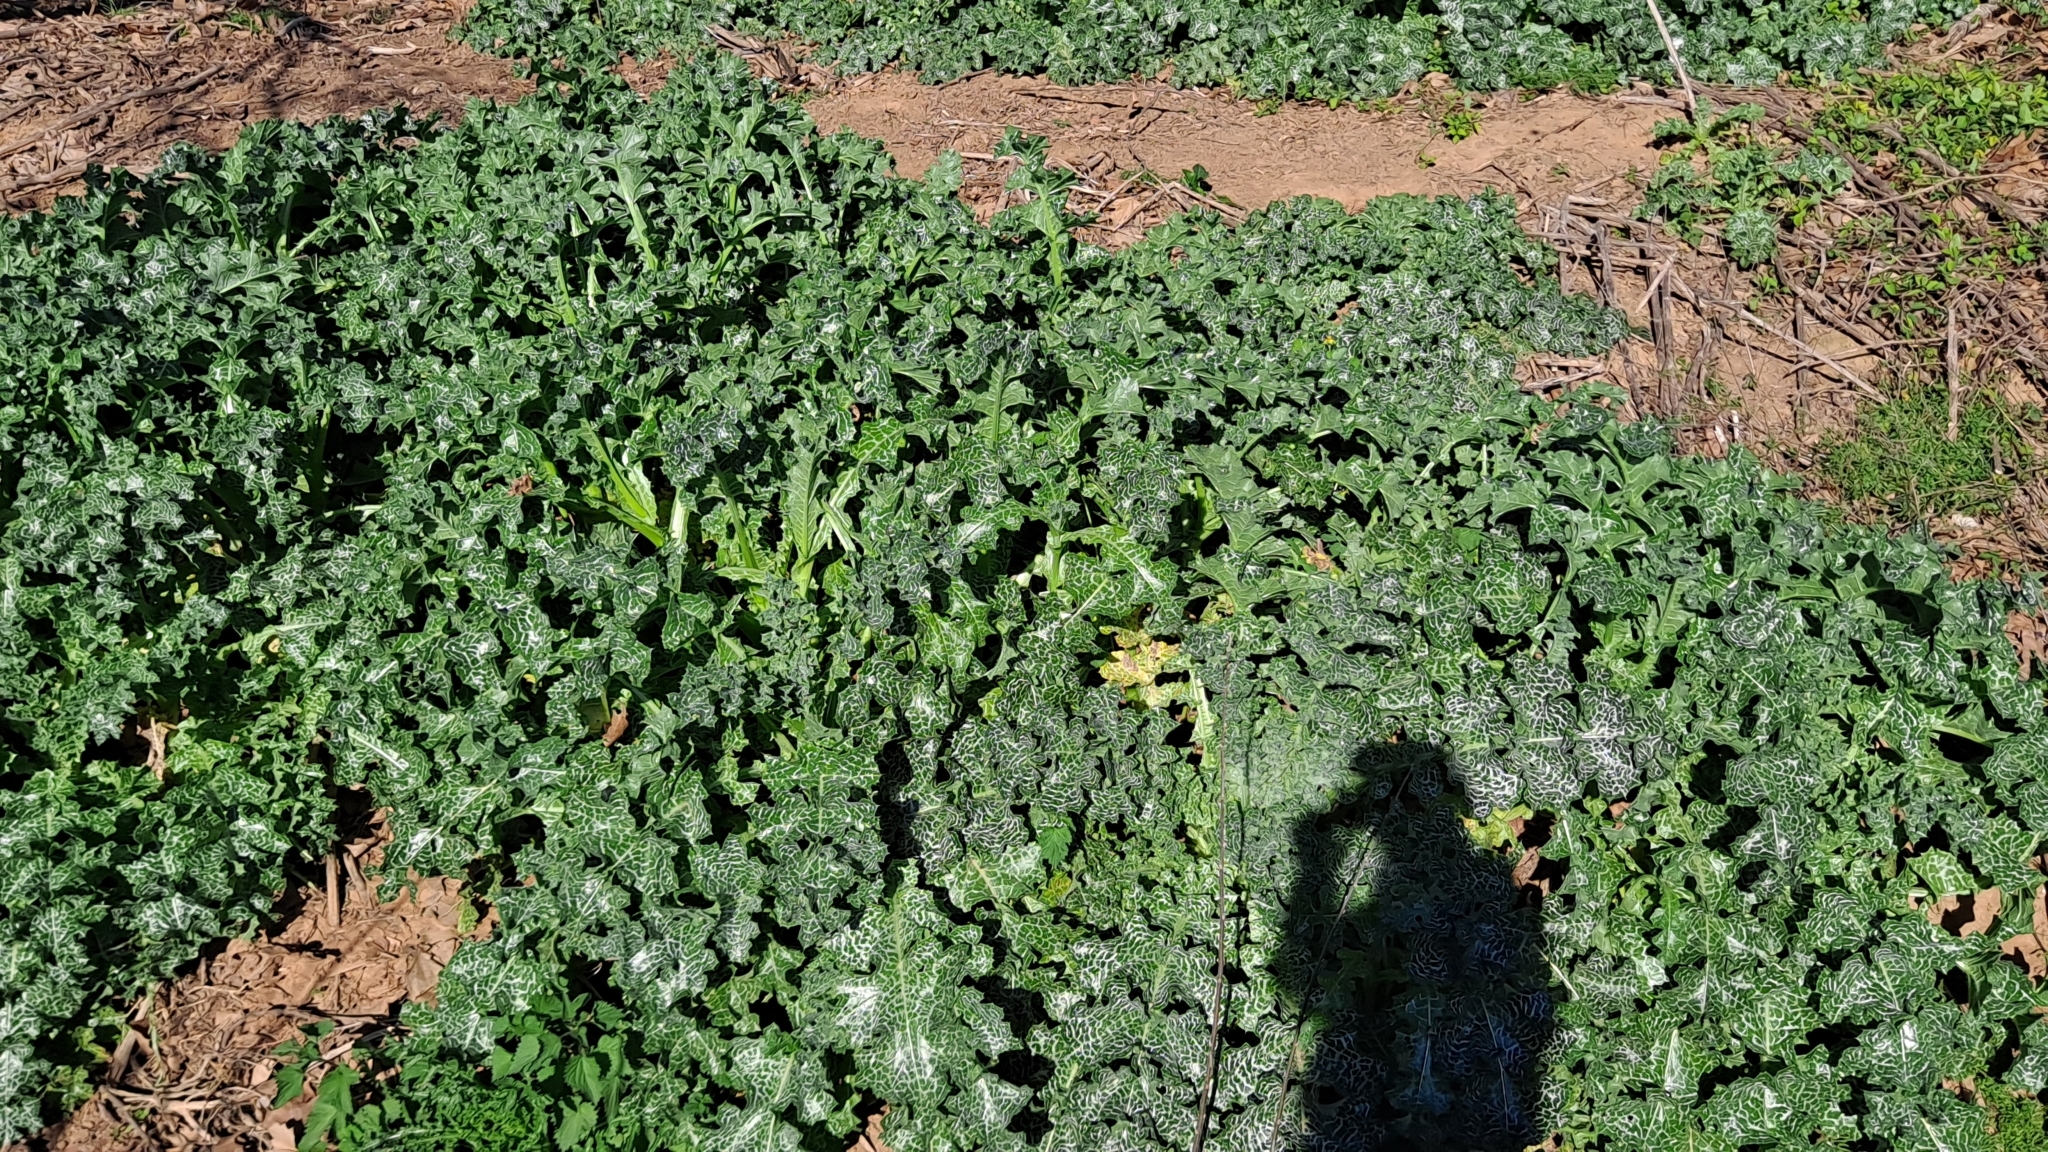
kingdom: Plantae
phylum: Tracheophyta
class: Magnoliopsida
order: Asterales
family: Asteraceae
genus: Silybum
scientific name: Silybum marianum
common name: Milk thistle
